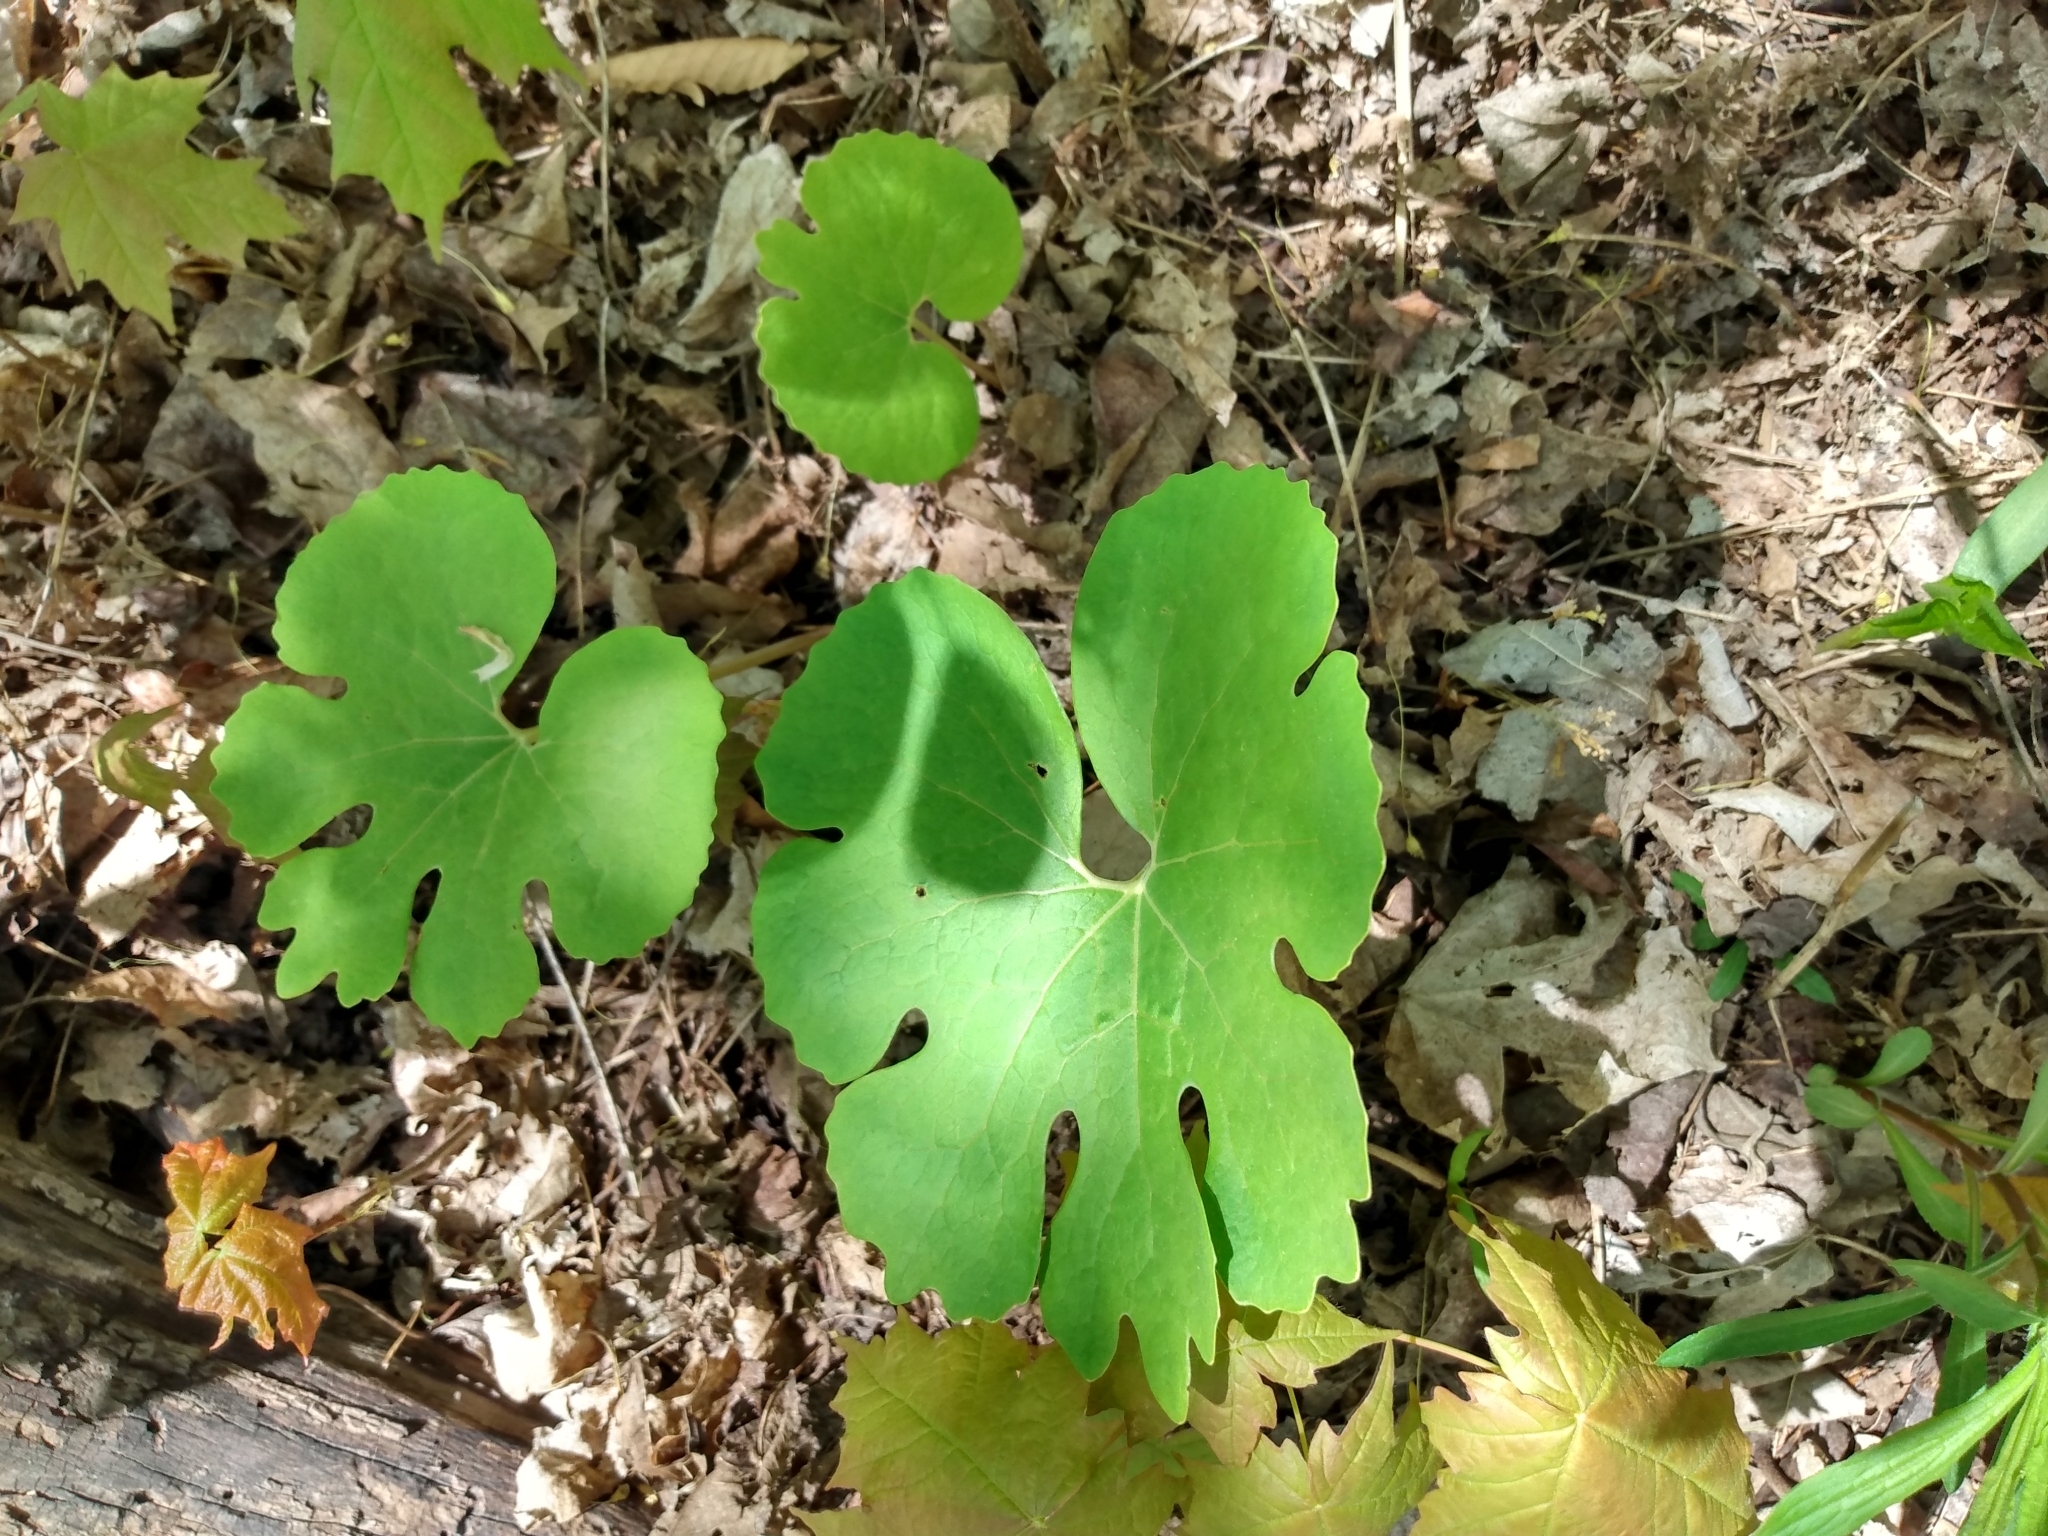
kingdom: Plantae
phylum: Tracheophyta
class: Magnoliopsida
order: Ranunculales
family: Papaveraceae
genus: Sanguinaria
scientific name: Sanguinaria canadensis
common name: Bloodroot
